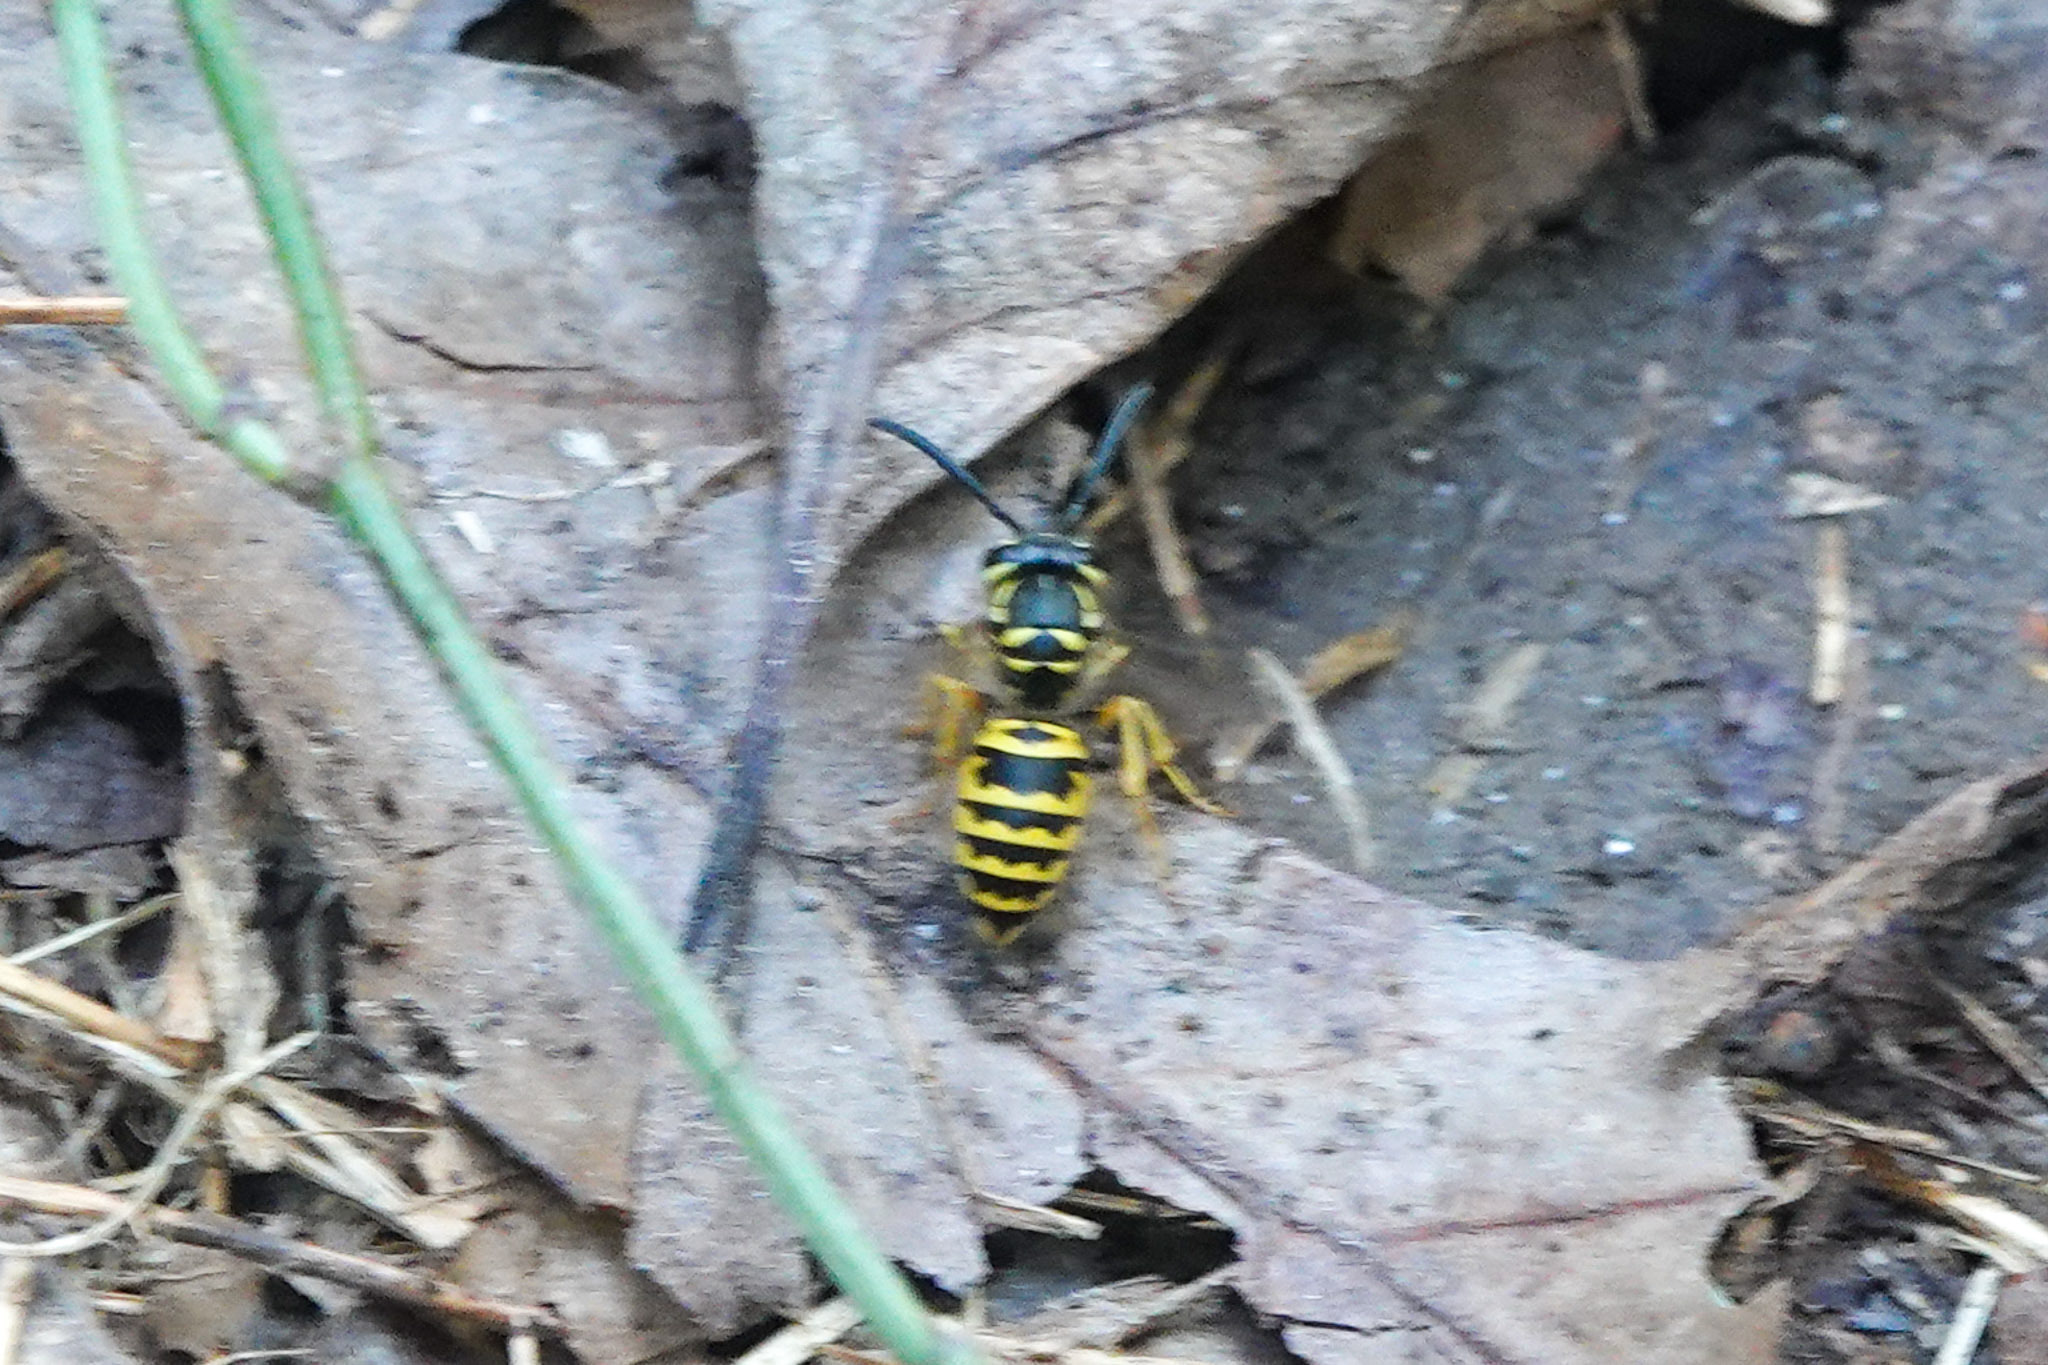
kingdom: Animalia
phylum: Arthropoda
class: Insecta
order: Hymenoptera
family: Vespidae
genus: Vespula
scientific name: Vespula maculifrons
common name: Eastern yellowjacket
